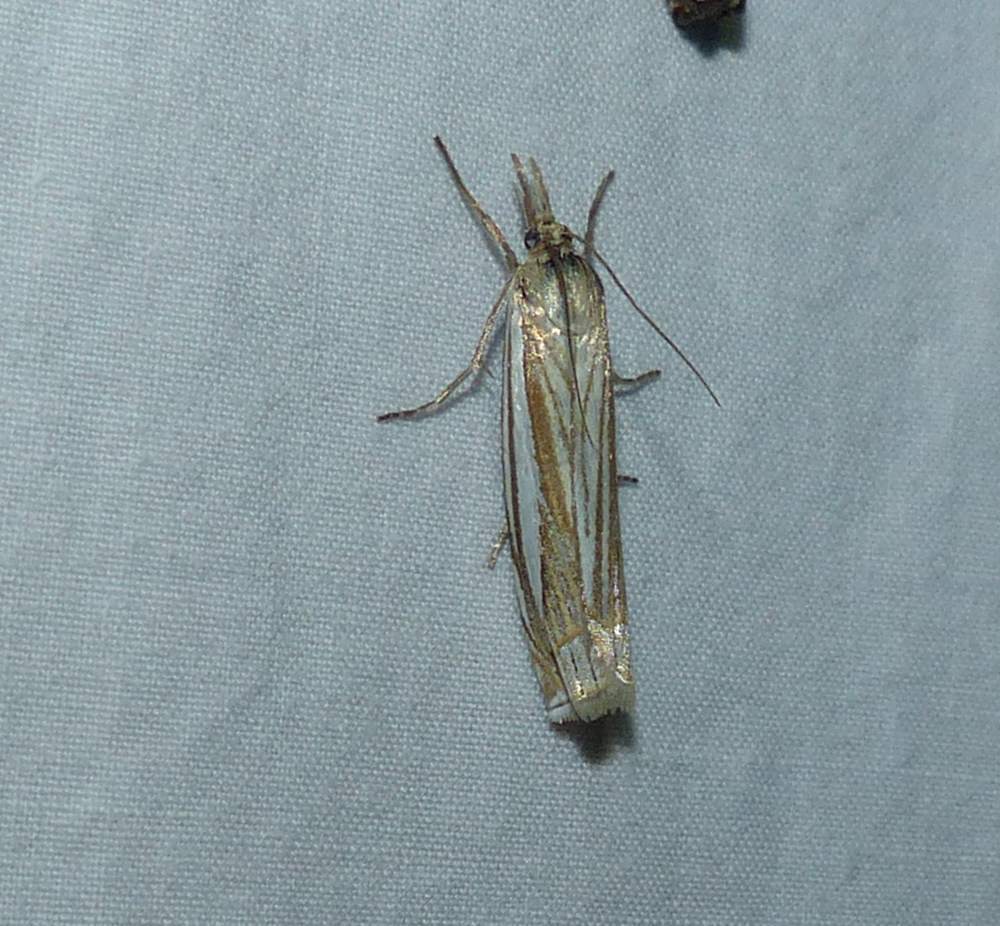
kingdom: Animalia
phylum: Arthropoda
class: Insecta
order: Lepidoptera
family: Crambidae
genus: Crambus
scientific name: Crambus laqueatellus
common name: Eastern grass-veneer
